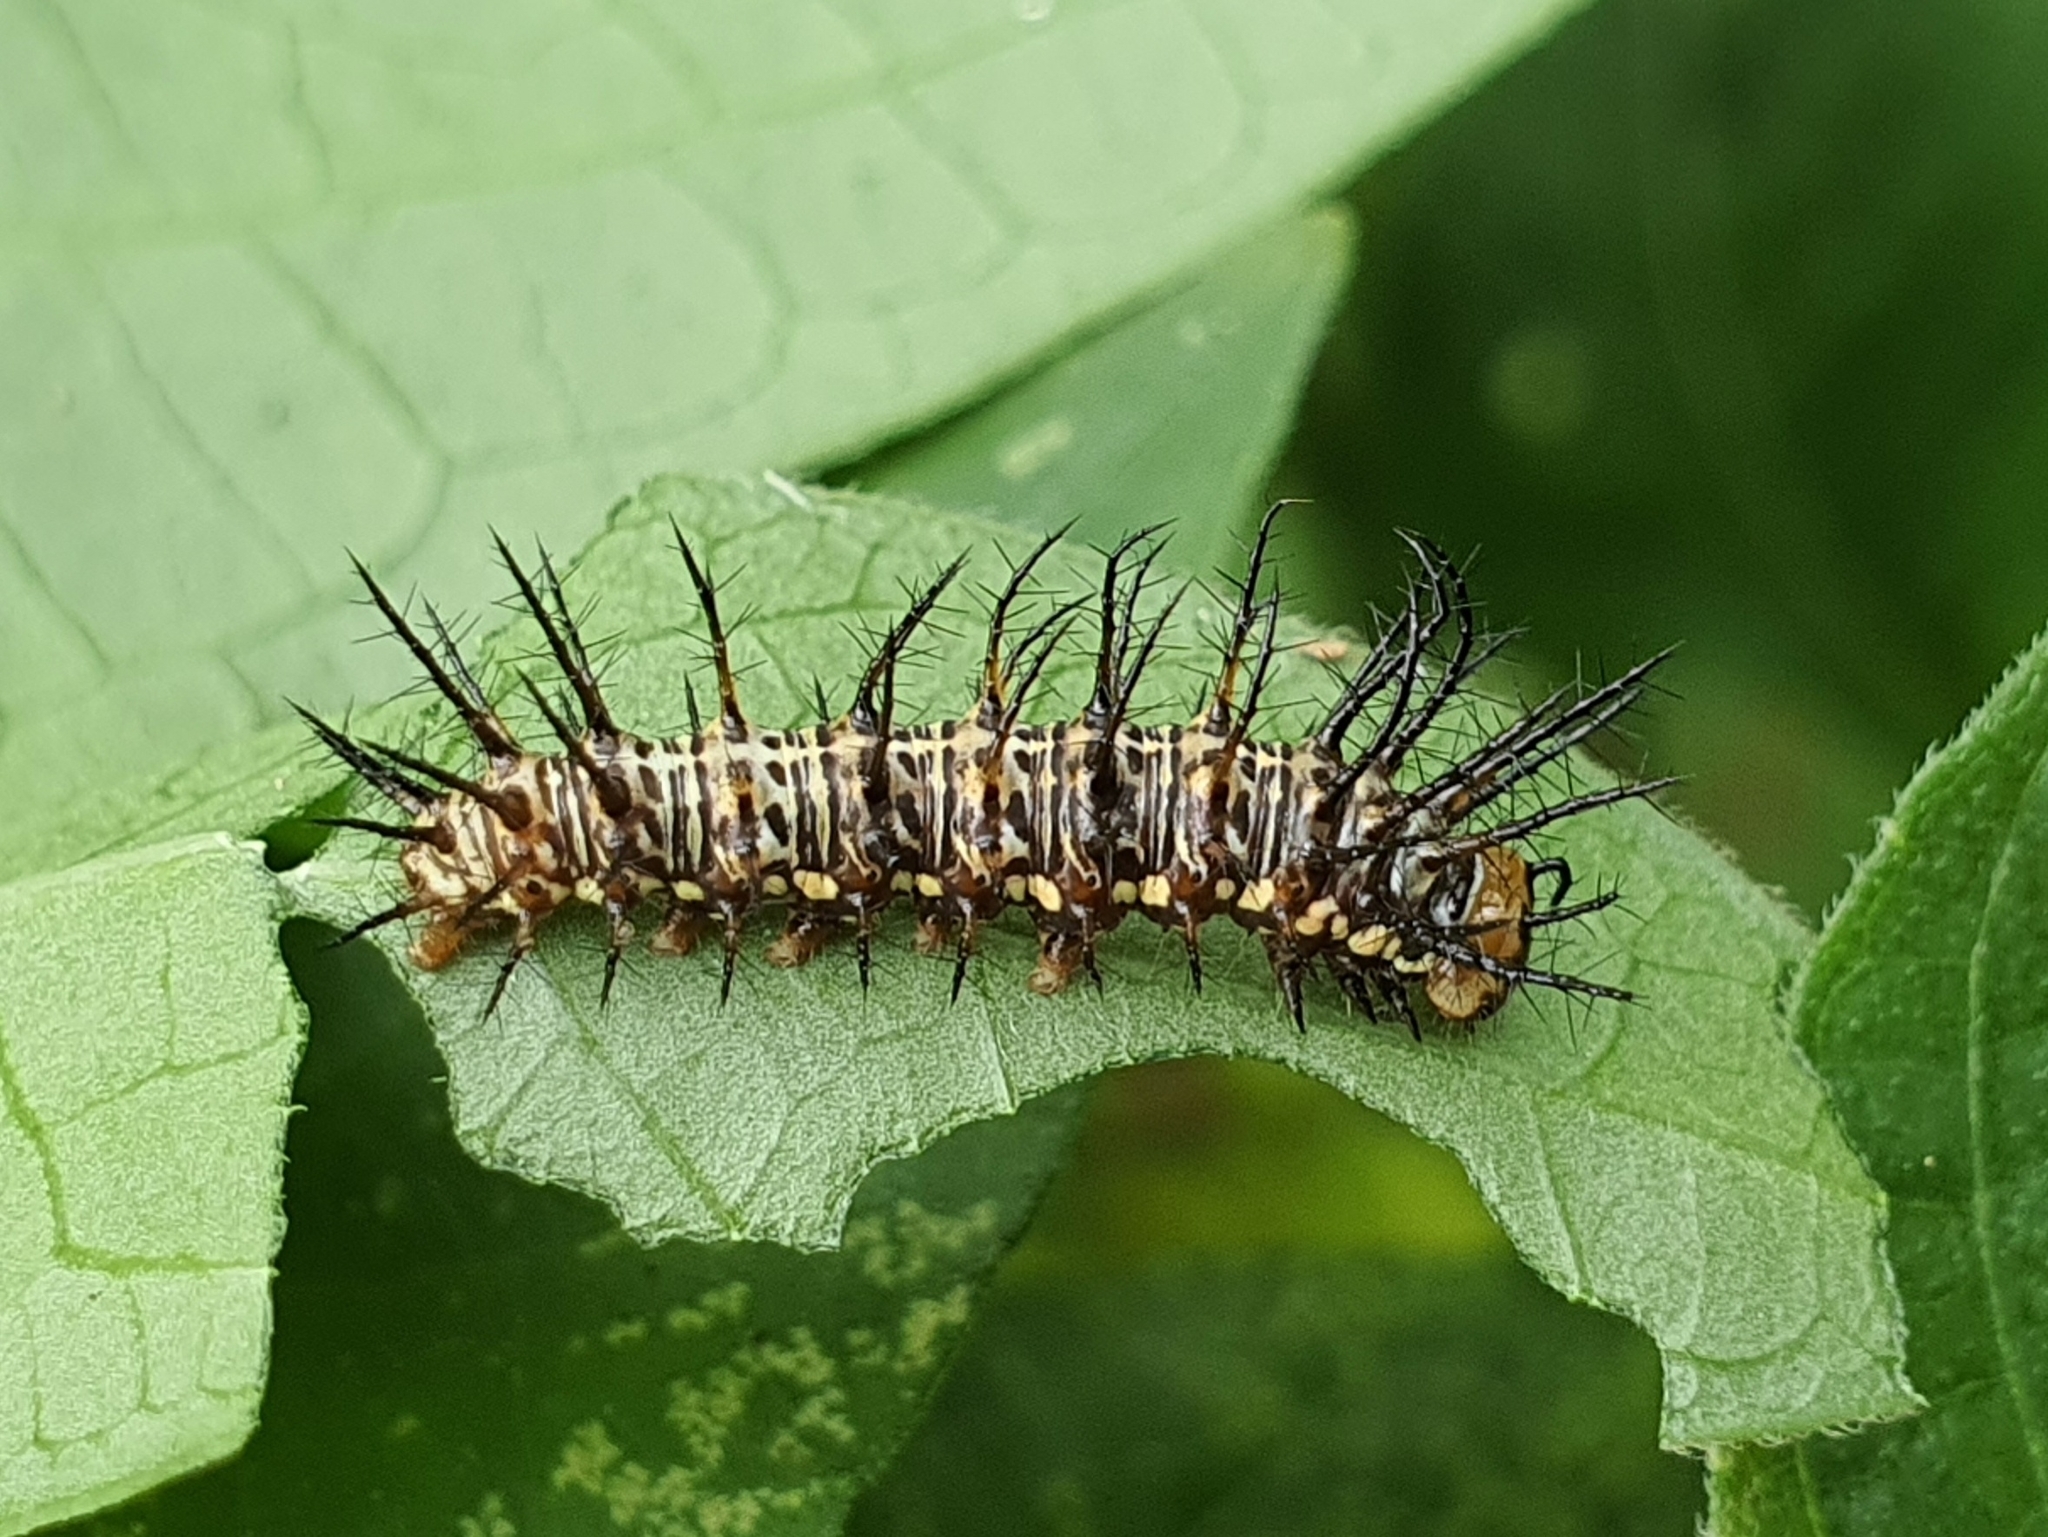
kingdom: Animalia
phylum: Arthropoda
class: Insecta
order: Lepidoptera
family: Nymphalidae
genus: Dryas
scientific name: Dryas iulia
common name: Flambeau
